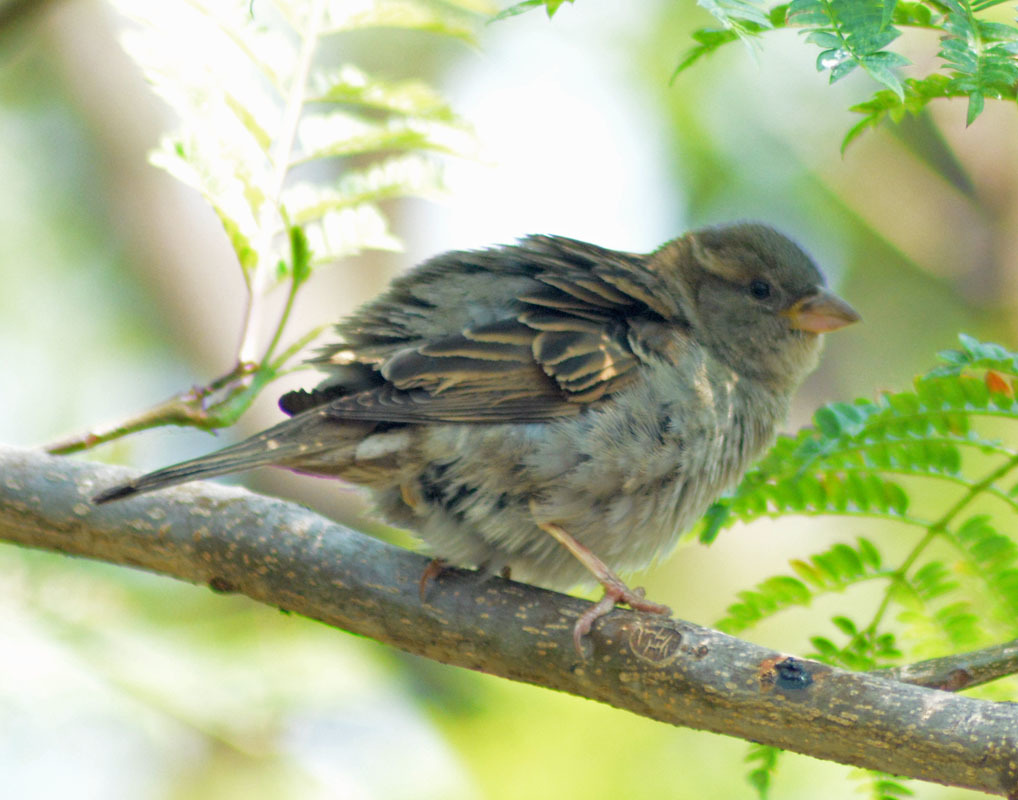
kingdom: Animalia
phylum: Chordata
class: Aves
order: Passeriformes
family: Passeridae
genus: Passer
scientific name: Passer domesticus
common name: House sparrow
